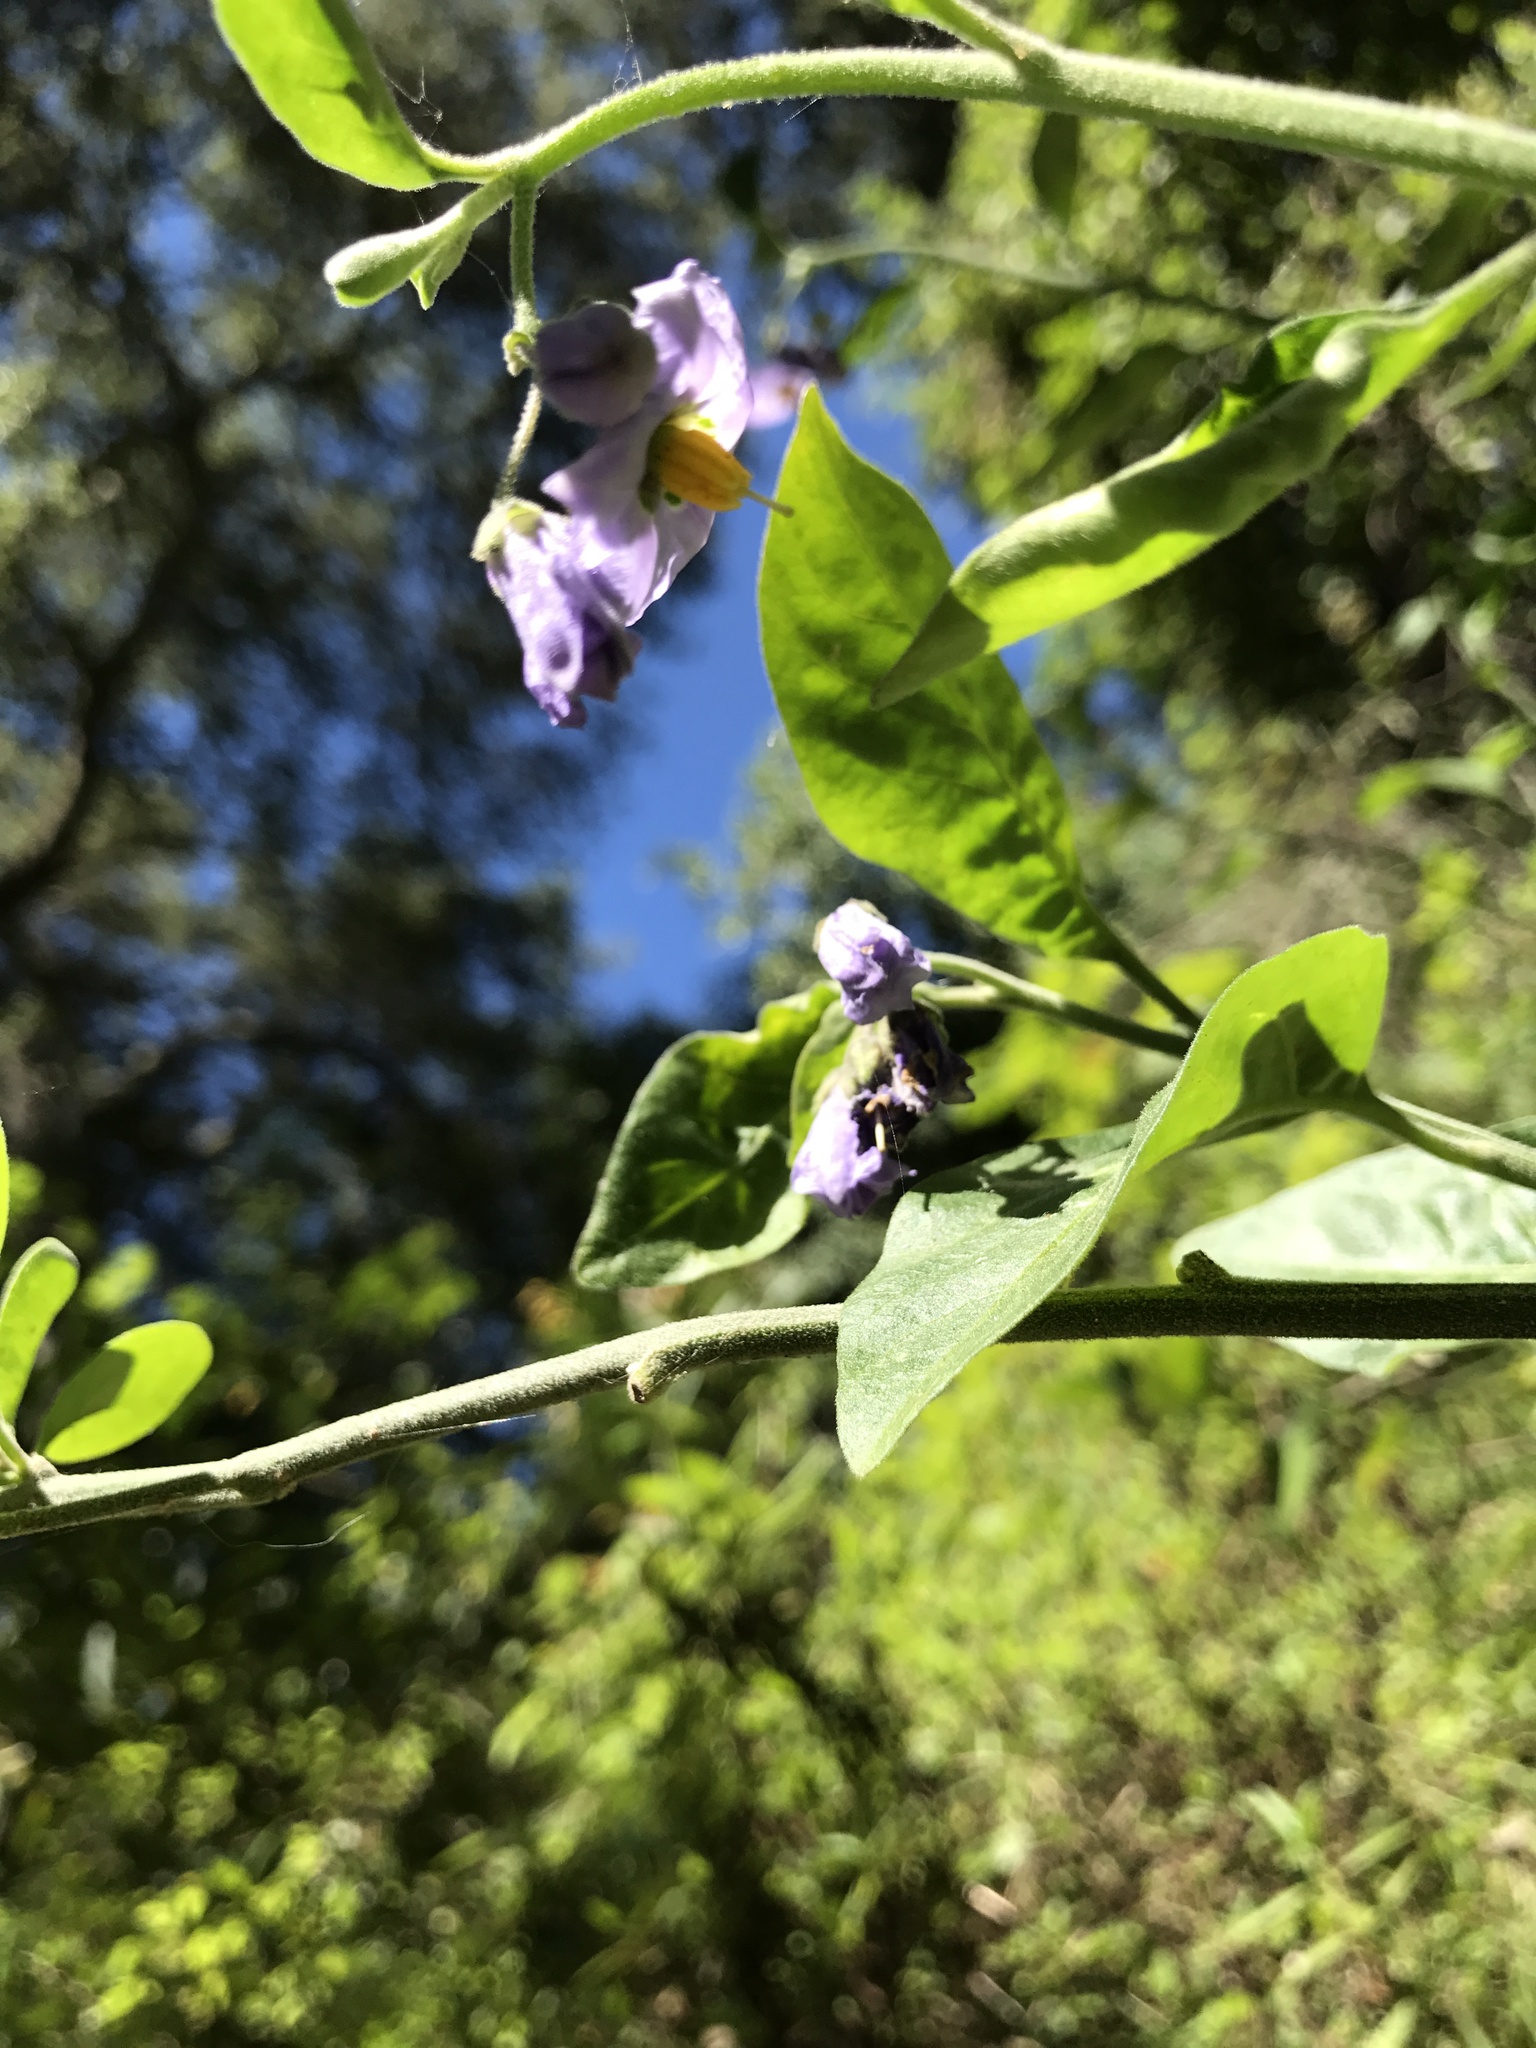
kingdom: Plantae
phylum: Tracheophyta
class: Magnoliopsida
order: Solanales
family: Solanaceae
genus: Solanum
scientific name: Solanum umbelliferum
